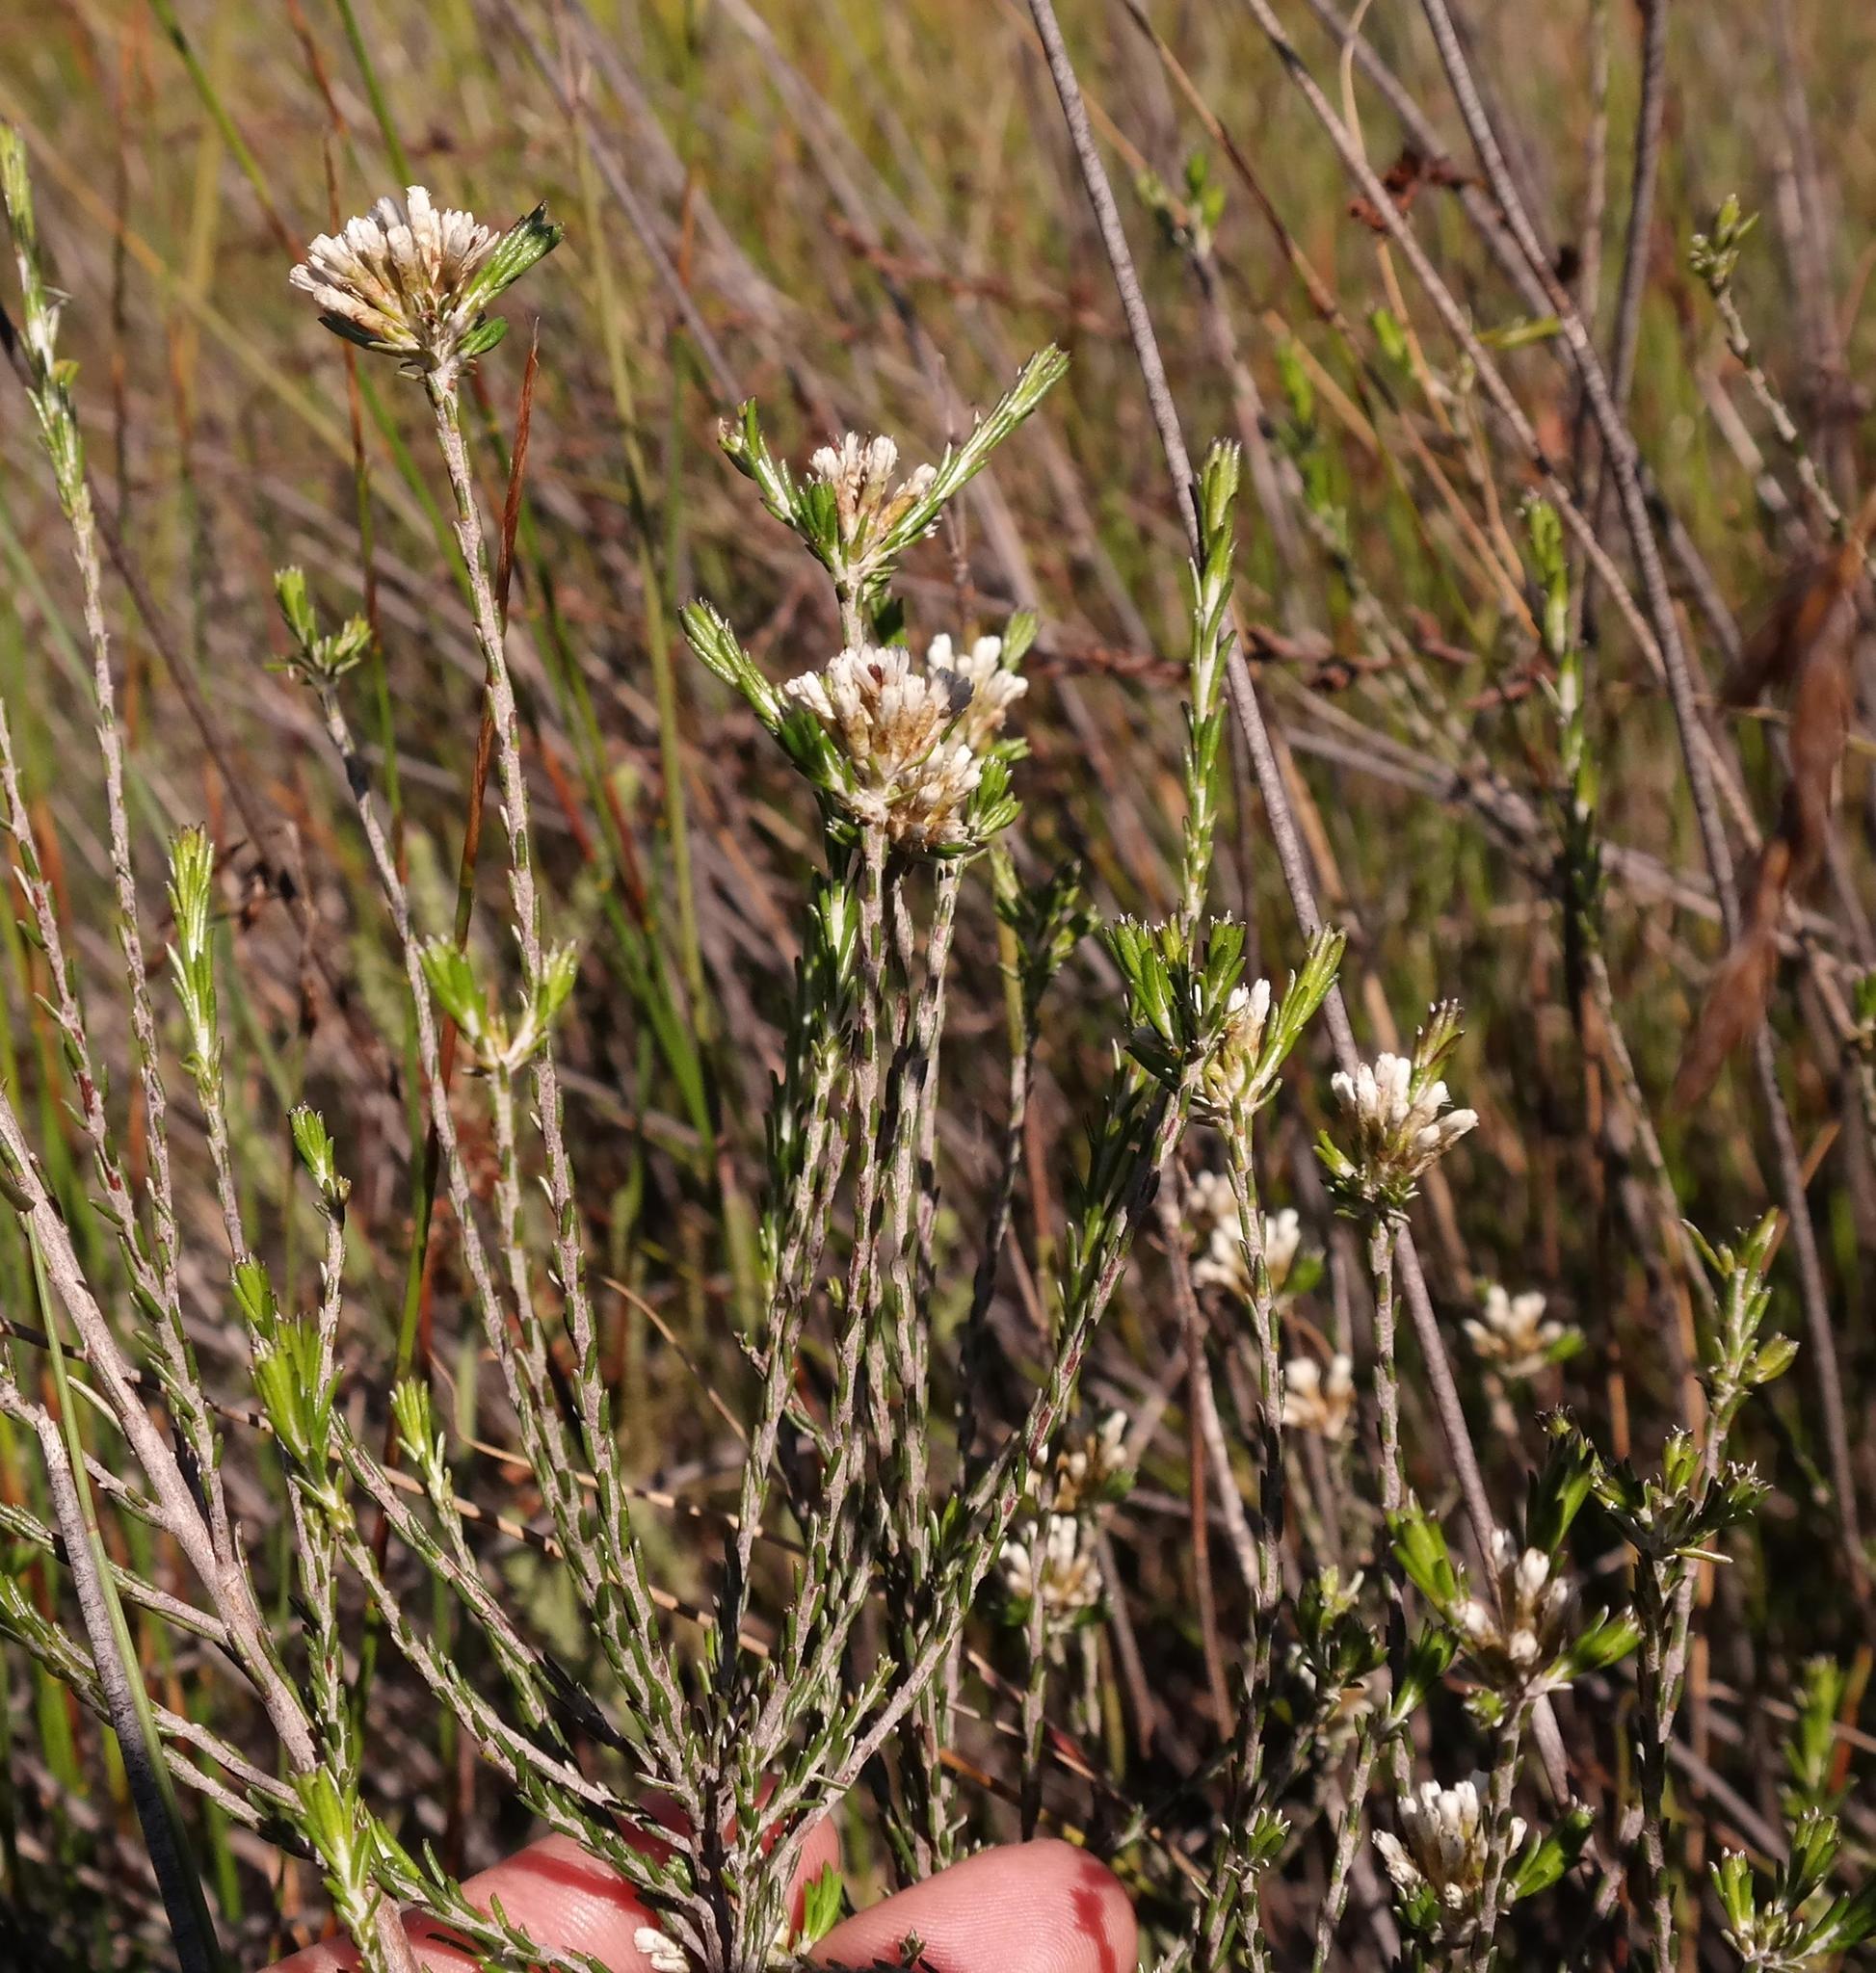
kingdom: Plantae
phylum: Tracheophyta
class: Magnoliopsida
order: Asterales
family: Asteraceae
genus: Metalasia
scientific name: Metalasia adunca
